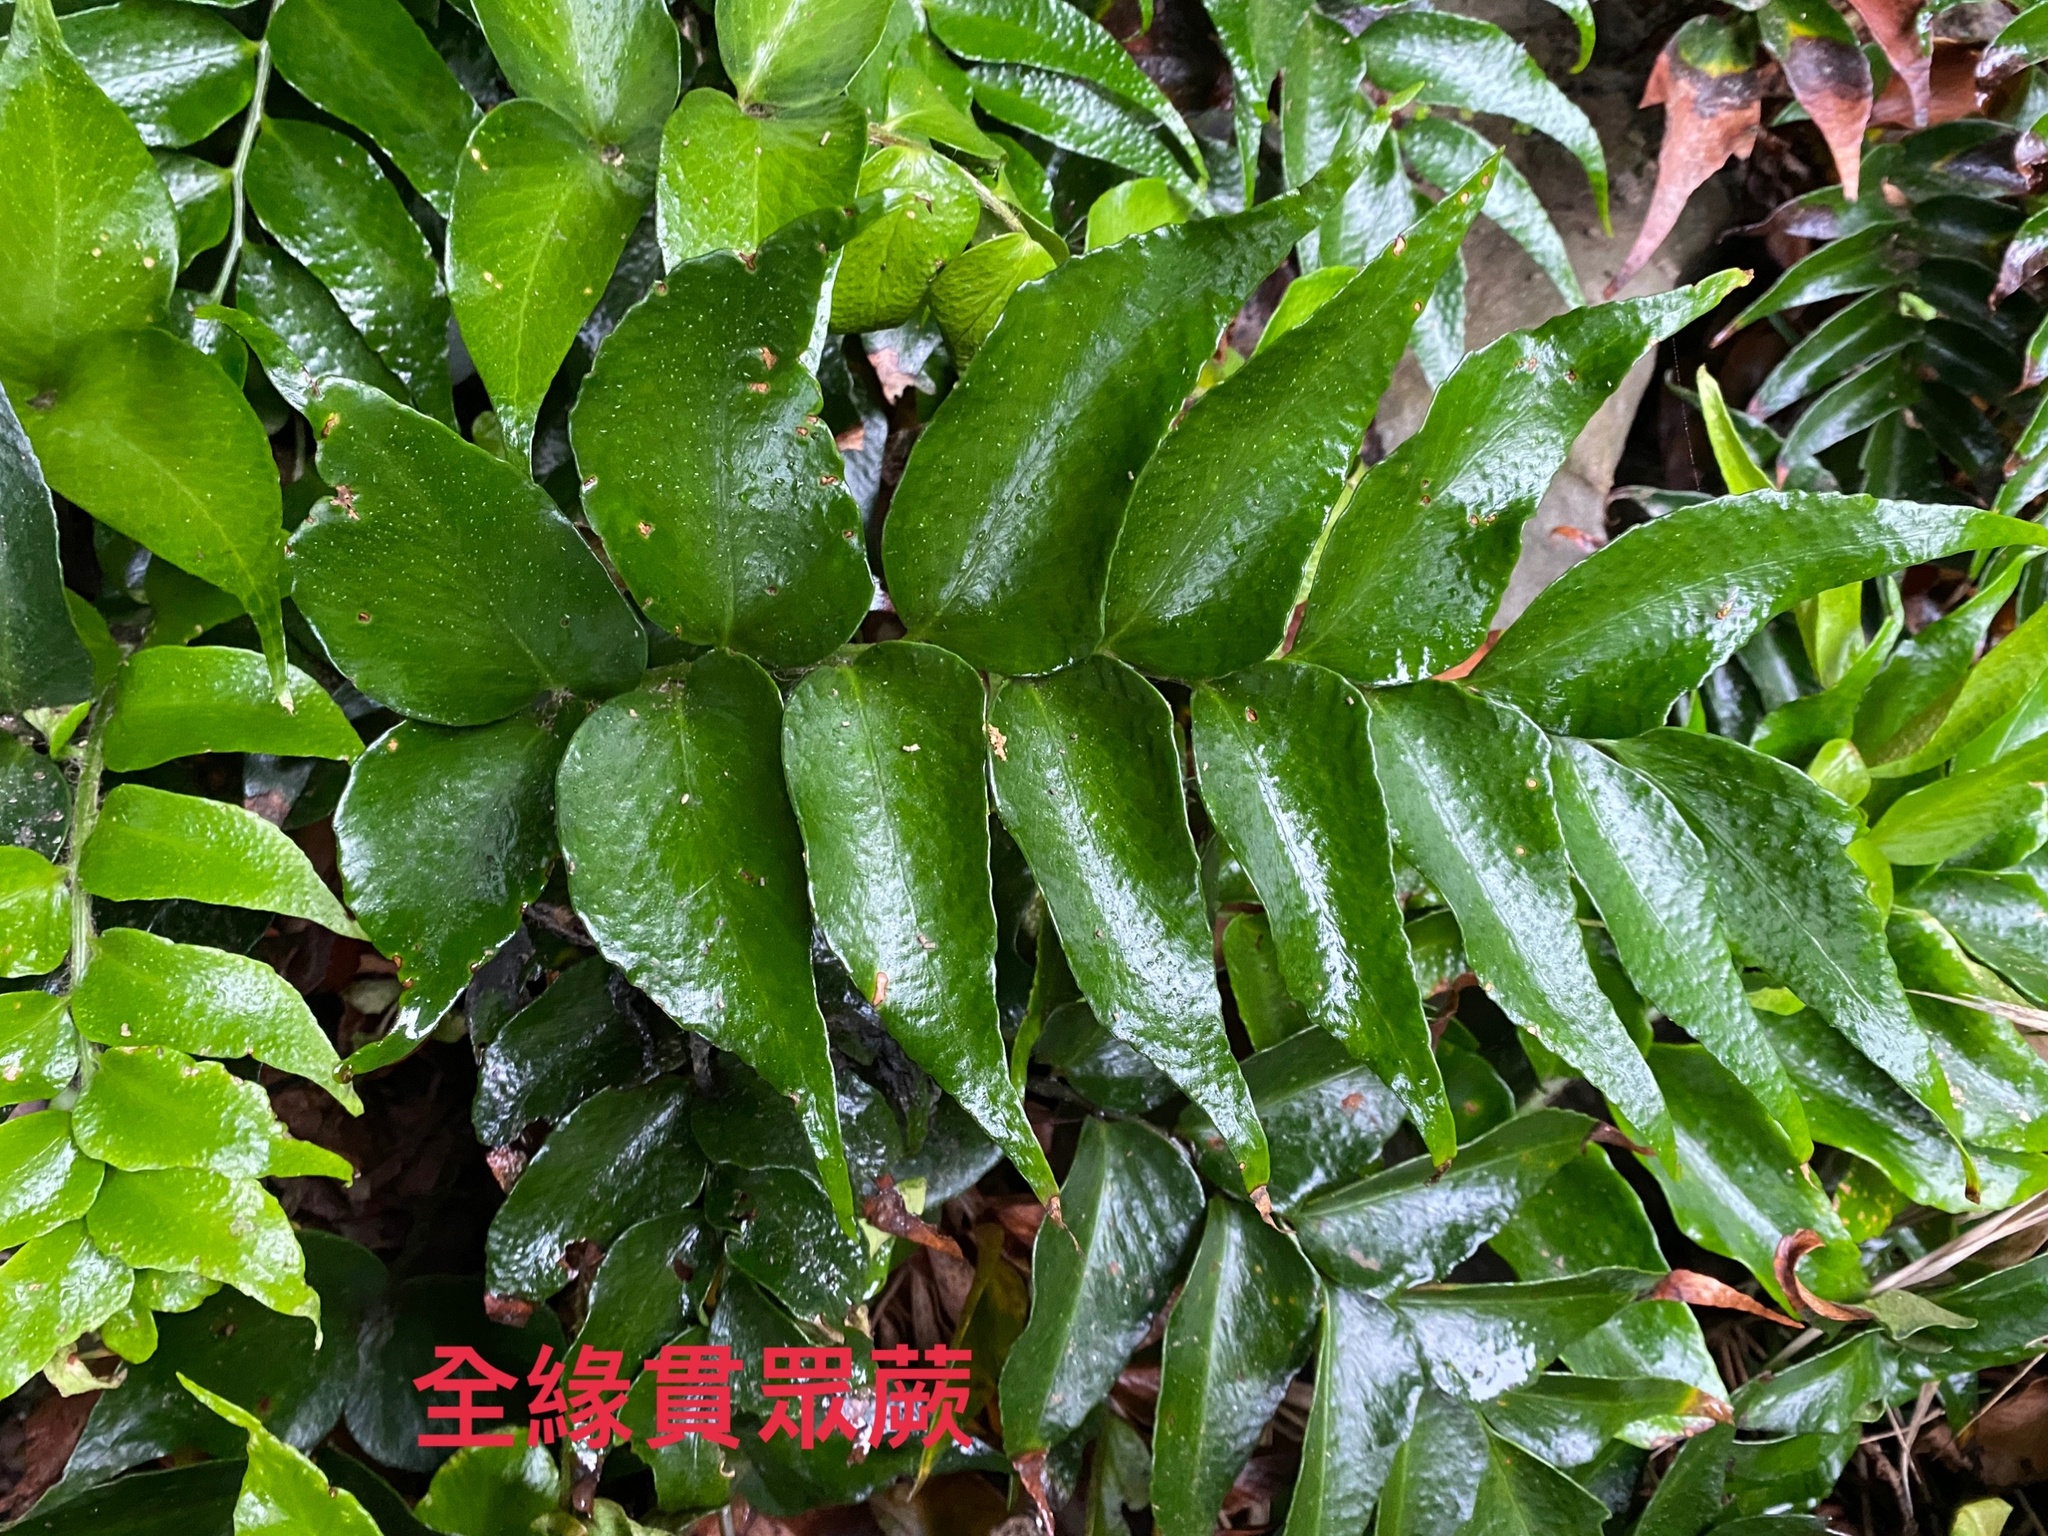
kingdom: Plantae
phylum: Tracheophyta
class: Polypodiopsida
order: Polypodiales
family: Dryopteridaceae
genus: Cyrtomium
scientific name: Cyrtomium falcatum
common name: House holly-fern
